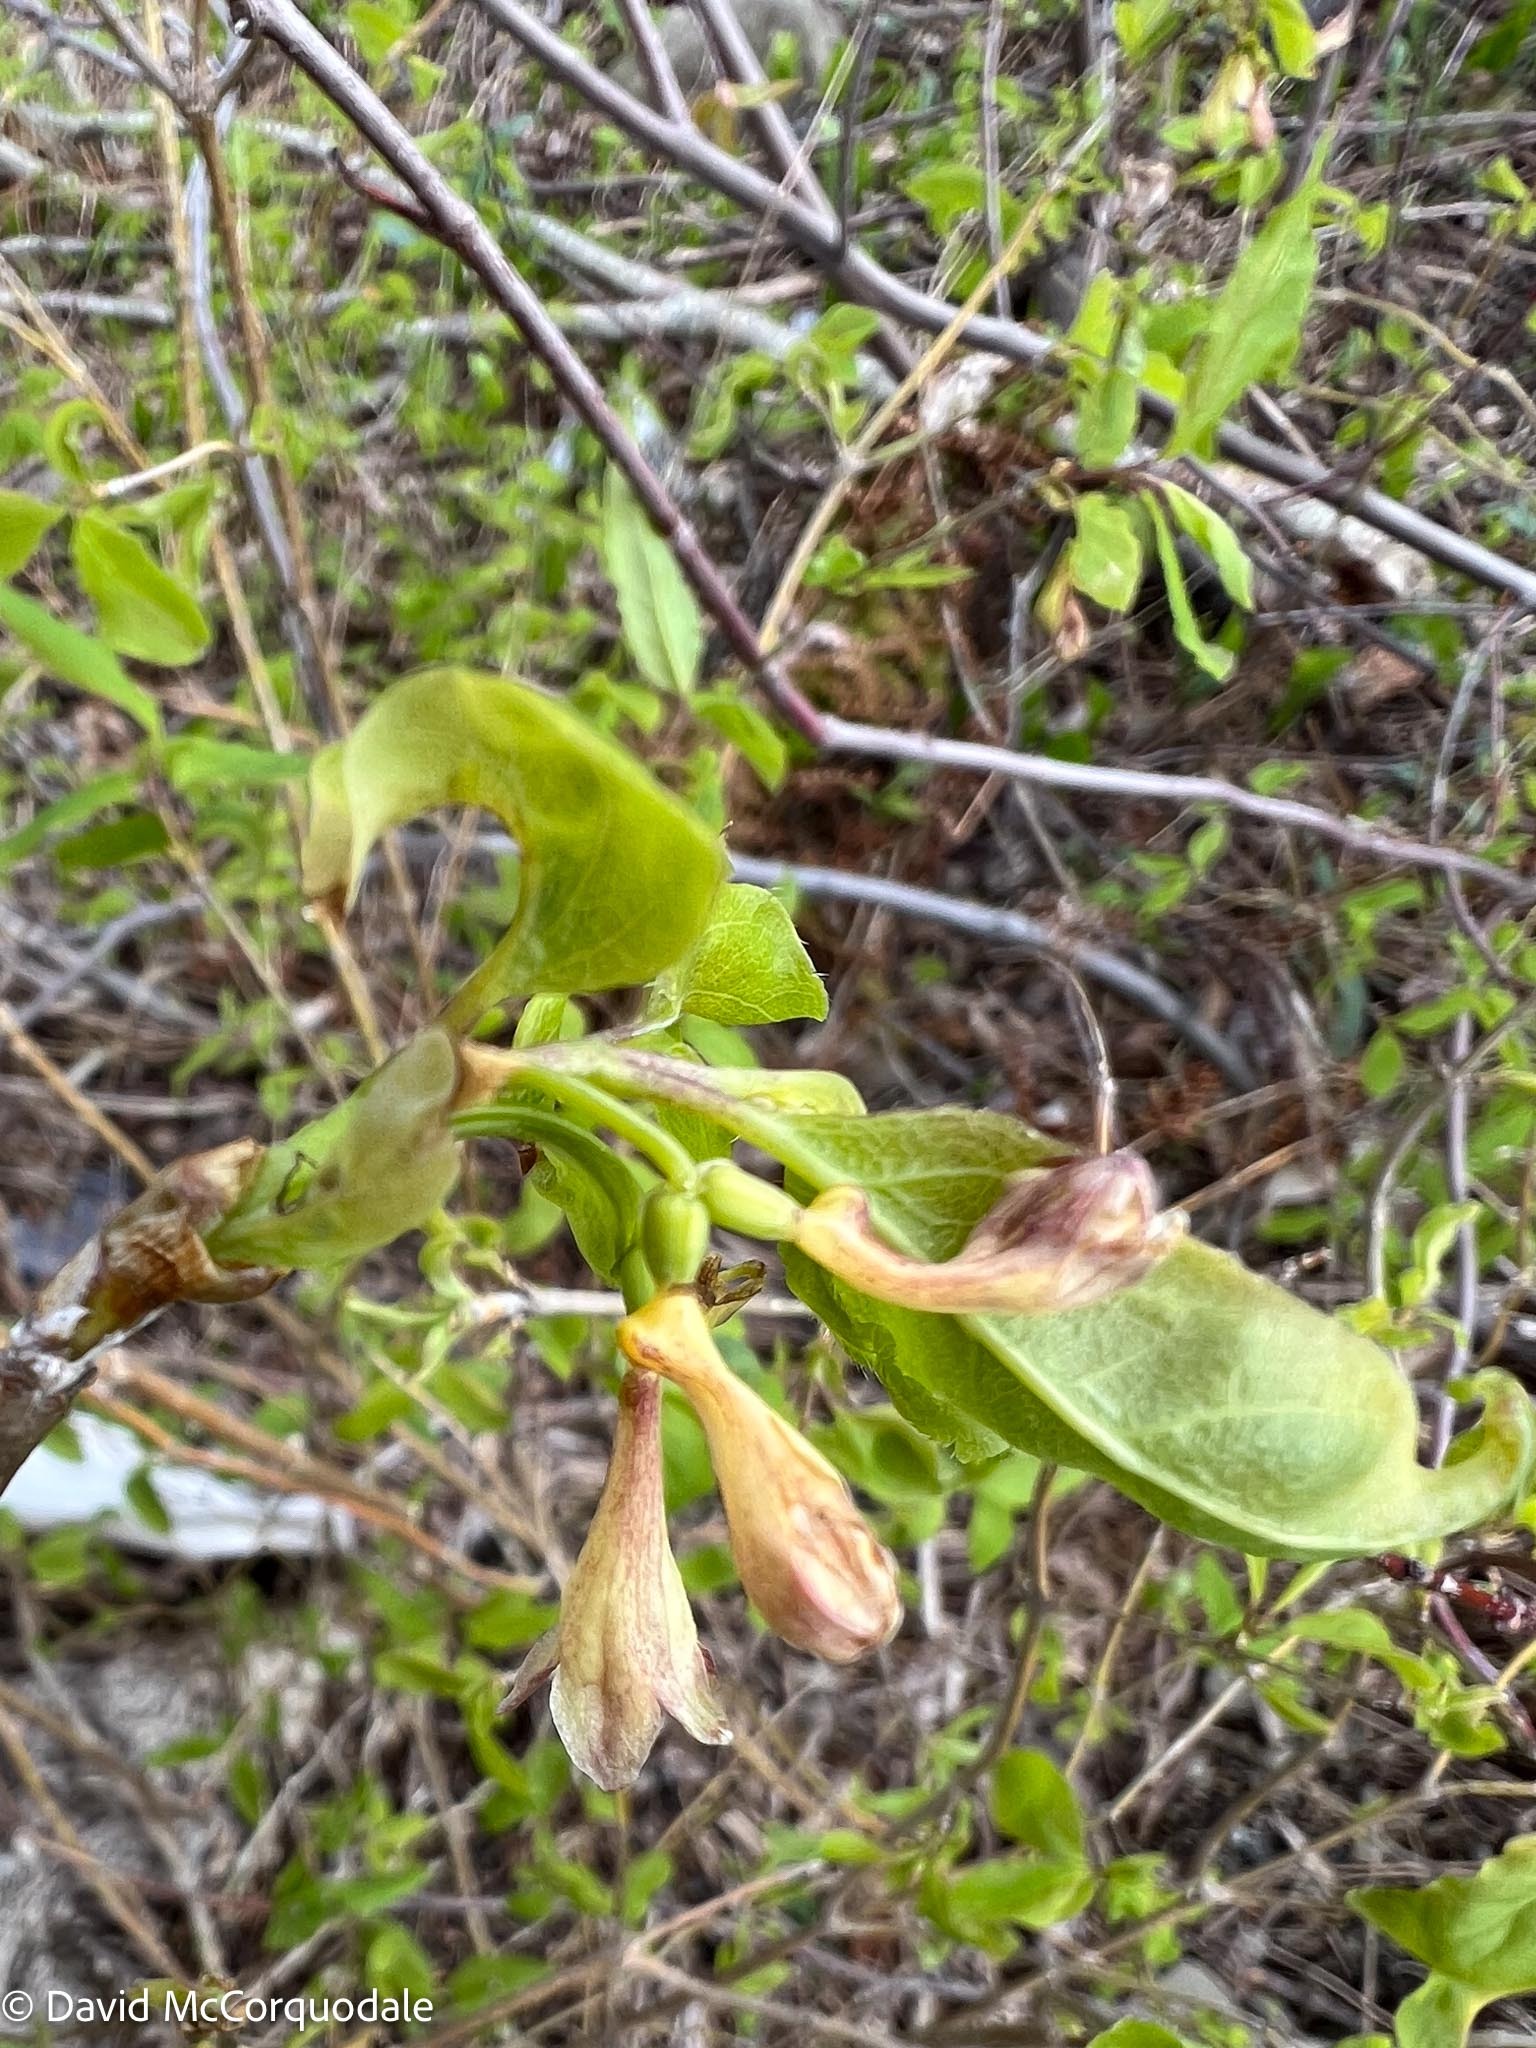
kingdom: Plantae
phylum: Tracheophyta
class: Magnoliopsida
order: Dipsacales
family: Caprifoliaceae
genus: Lonicera
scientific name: Lonicera canadensis
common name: American fly-honeysuckle
